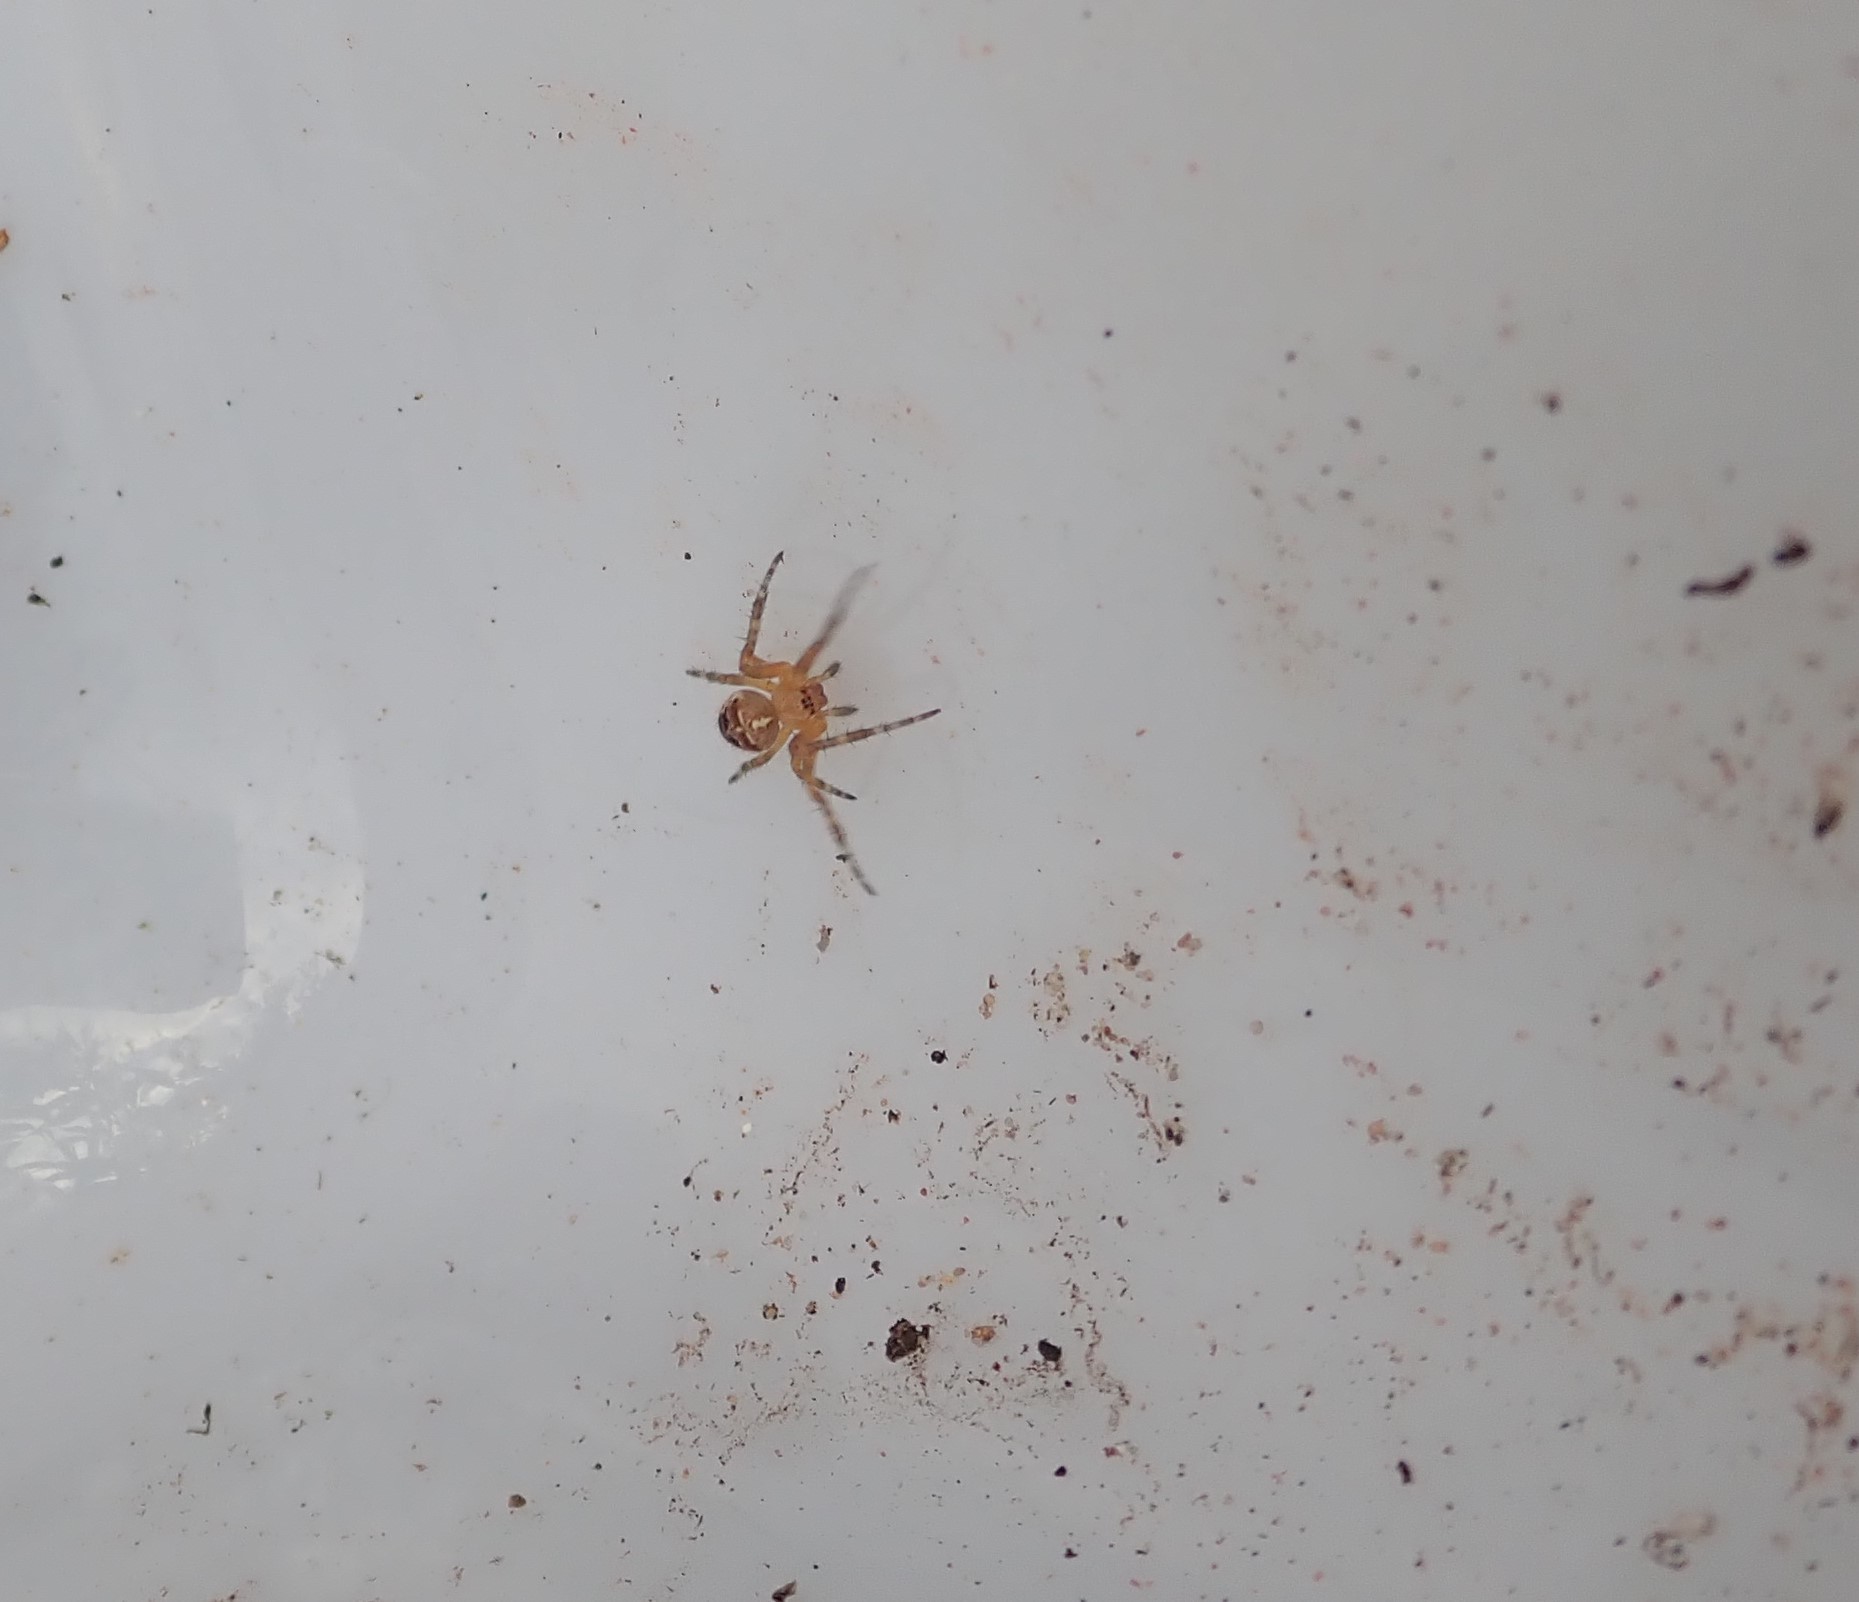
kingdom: Animalia
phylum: Arthropoda
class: Arachnida
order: Araneae
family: Araneidae
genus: Araneus
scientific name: Araneus diadematus
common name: Cross orbweaver
